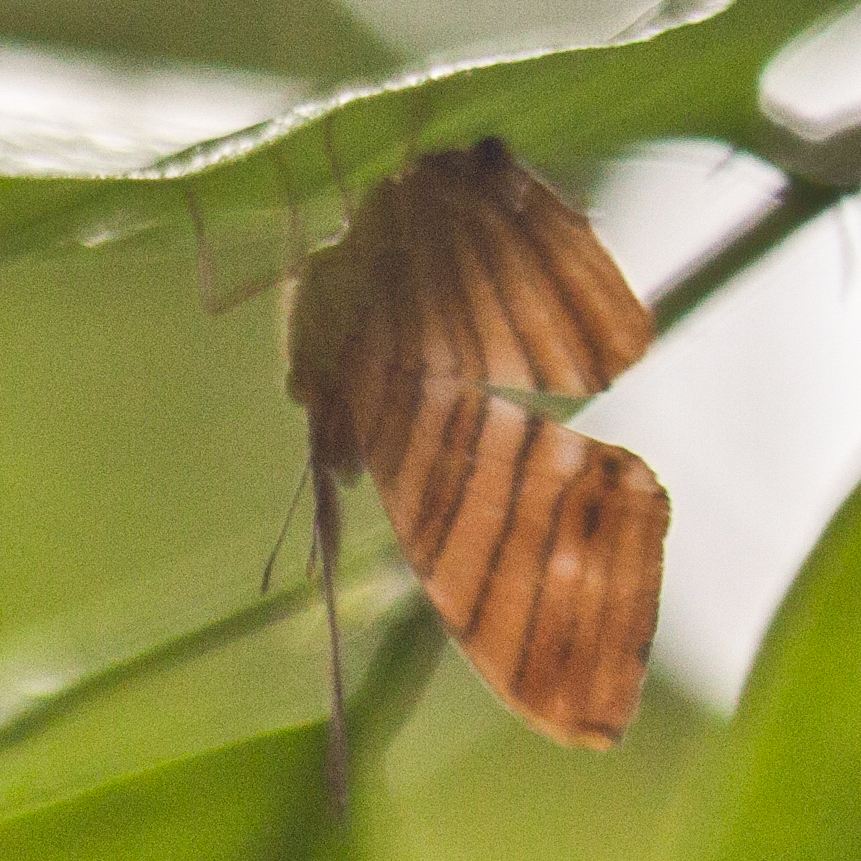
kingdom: Animalia
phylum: Arthropoda
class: Insecta
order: Lepidoptera
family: Nymphalidae
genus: Chersonesia
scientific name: Chersonesia risa
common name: Common maplet
